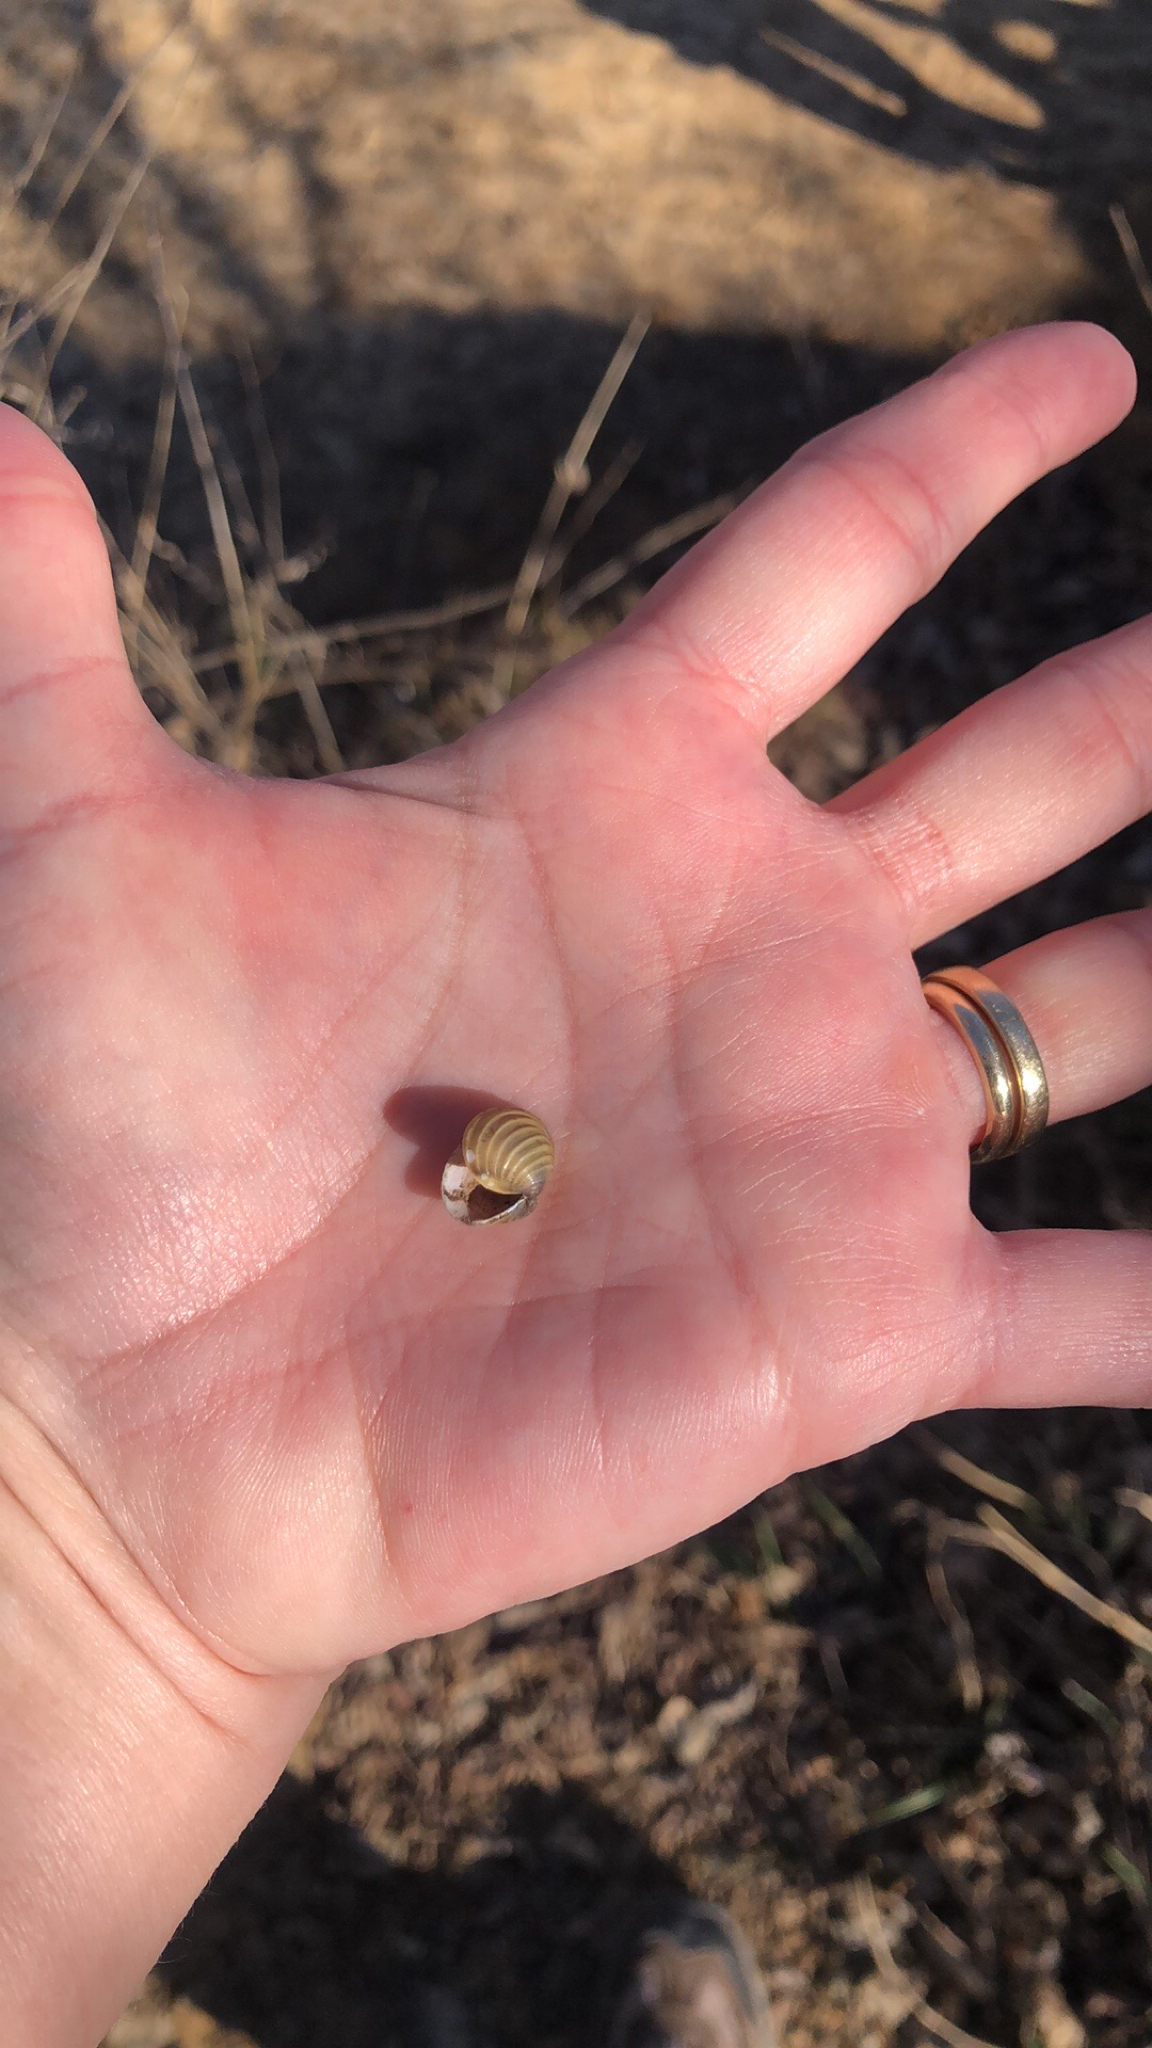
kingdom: Animalia
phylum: Mollusca
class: Bivalvia
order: Venerida
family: Cyrenidae
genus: Corbicula
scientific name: Corbicula fluminea
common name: Asian clam
